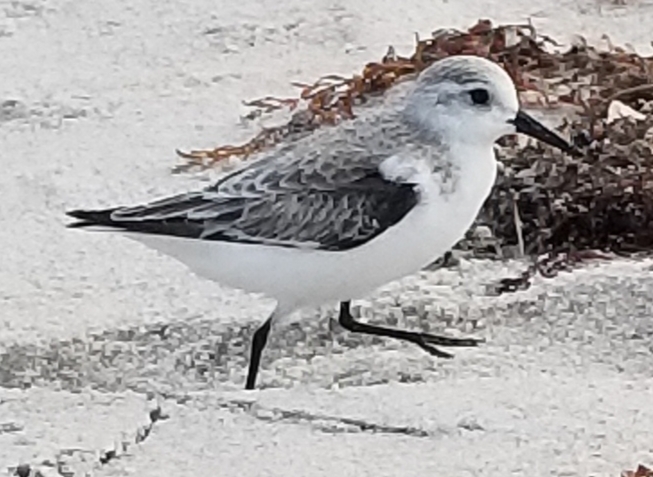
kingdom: Animalia
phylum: Chordata
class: Aves
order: Charadriiformes
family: Scolopacidae
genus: Calidris
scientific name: Calidris alba
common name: Sanderling
